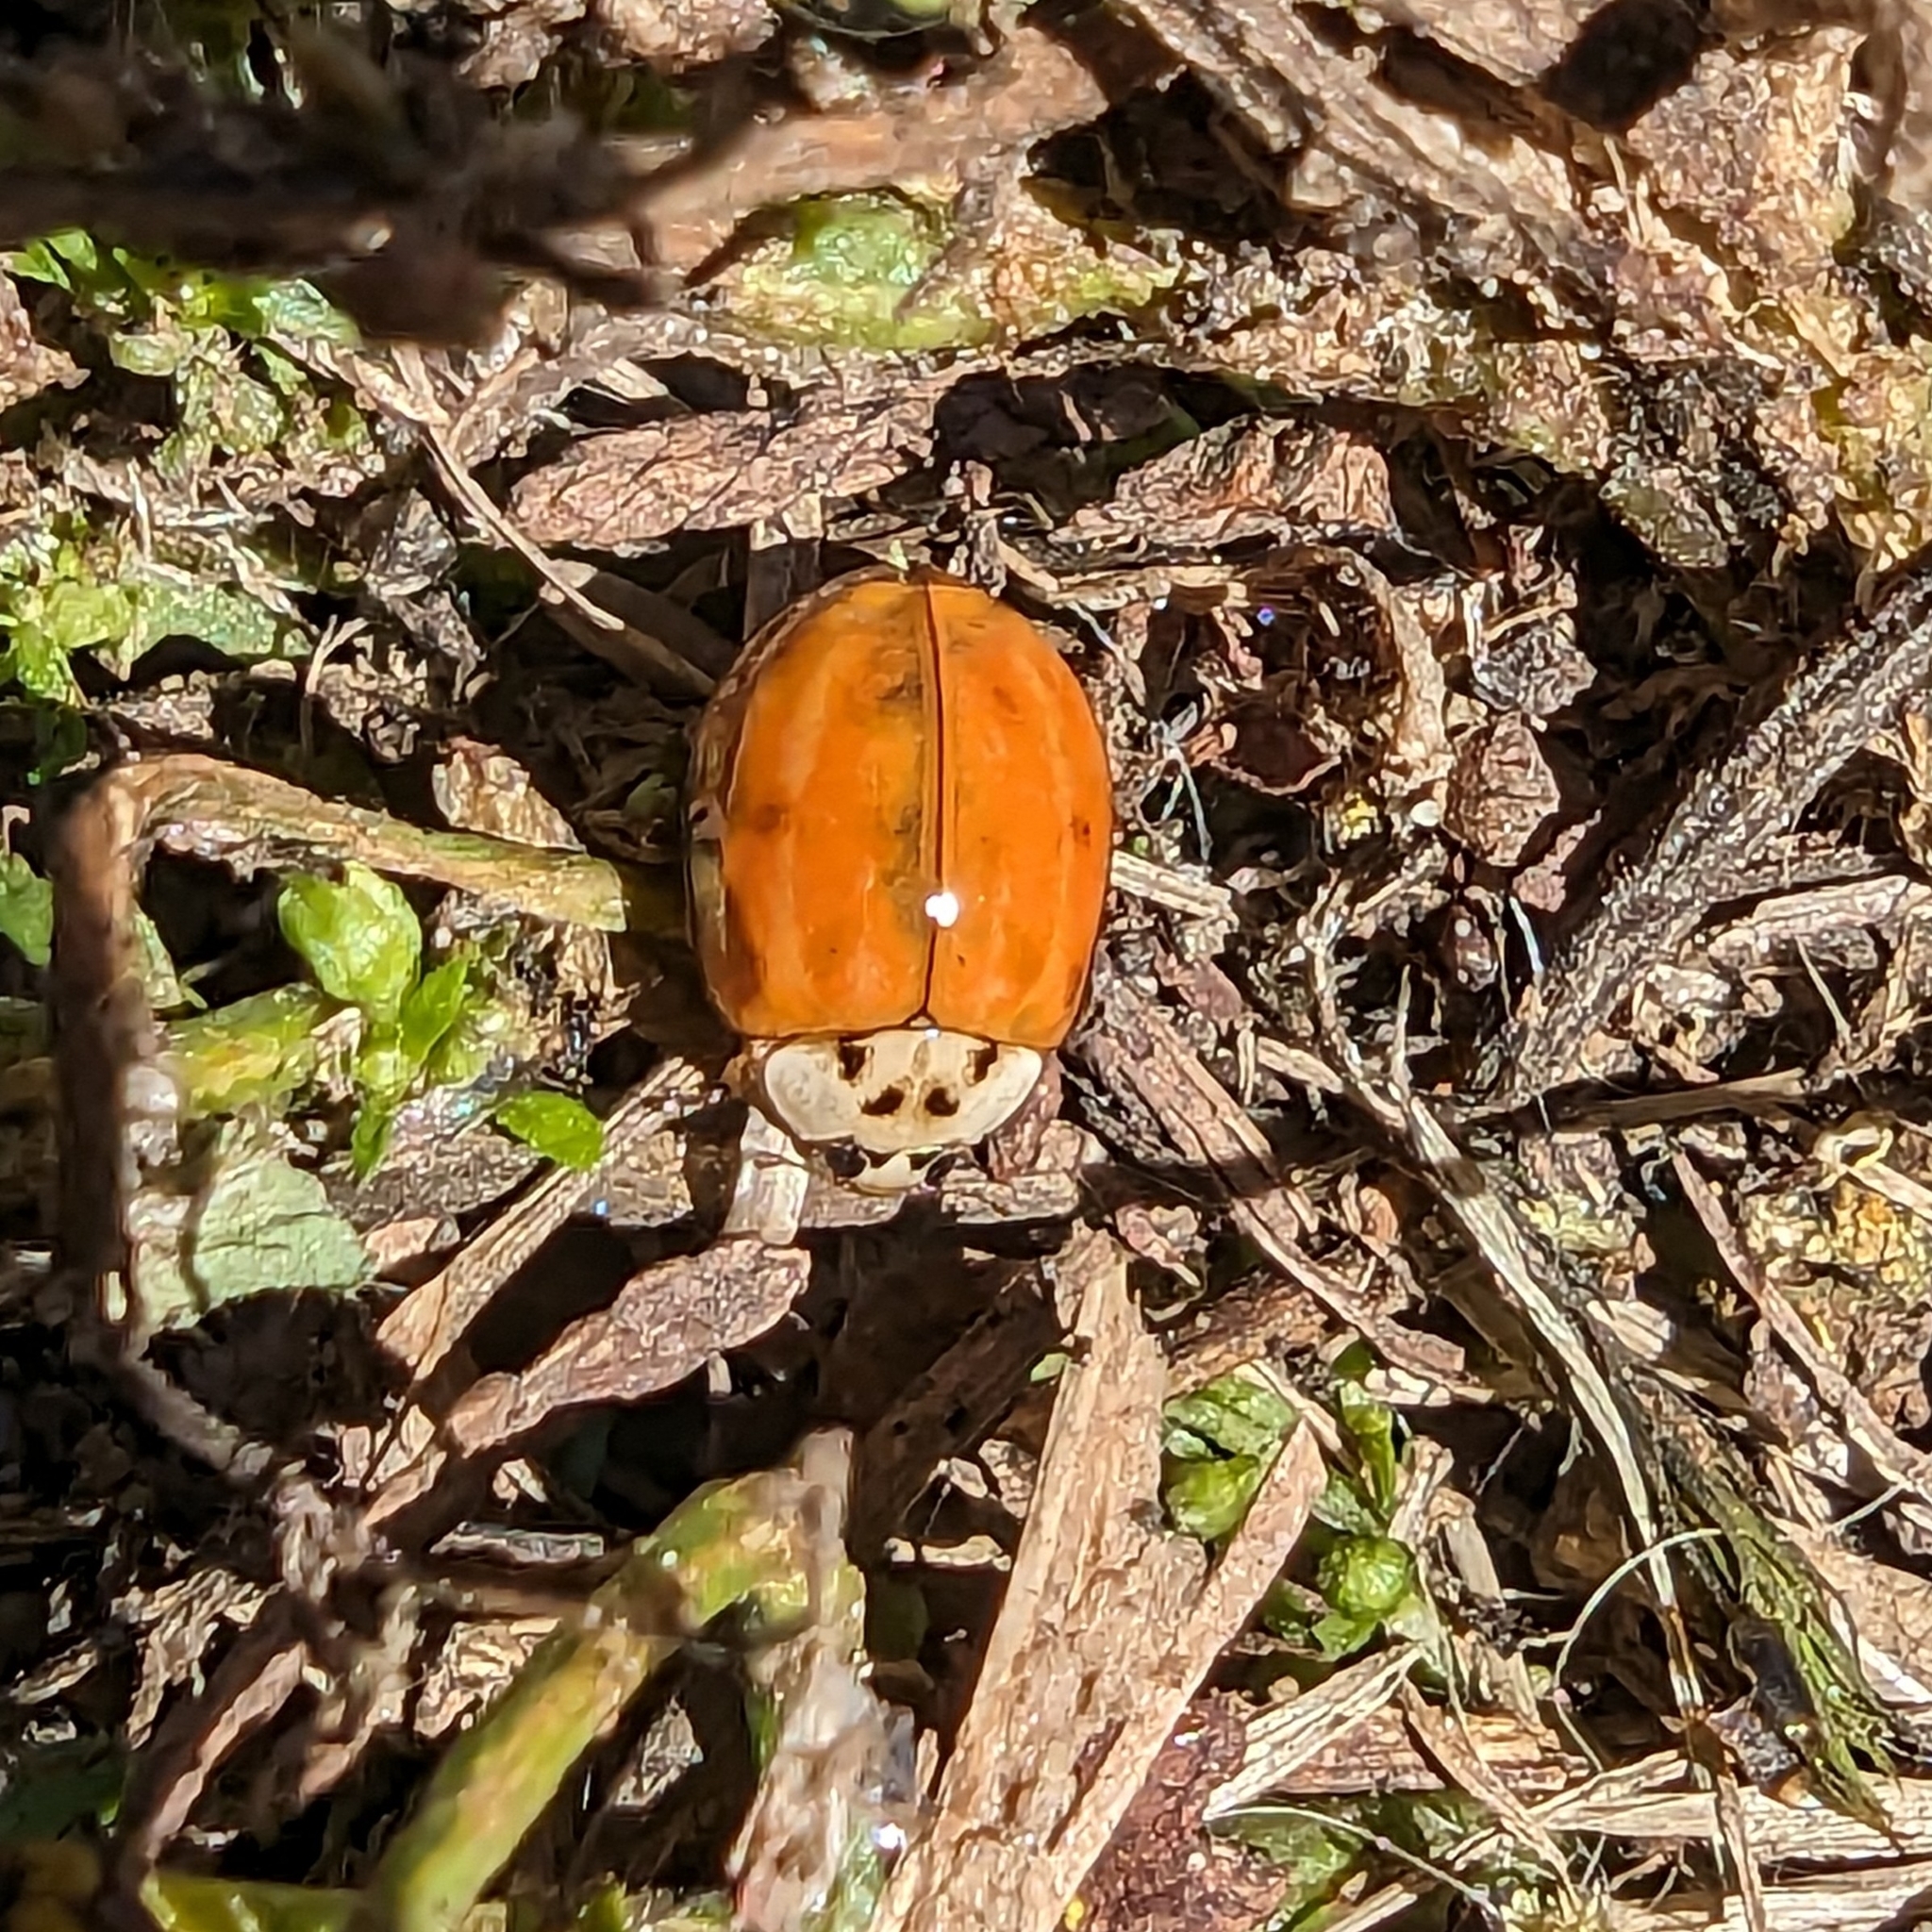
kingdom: Animalia
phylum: Arthropoda
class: Insecta
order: Coleoptera
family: Coccinellidae
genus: Harmonia
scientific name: Harmonia axyridis
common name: Harlequin ladybird
